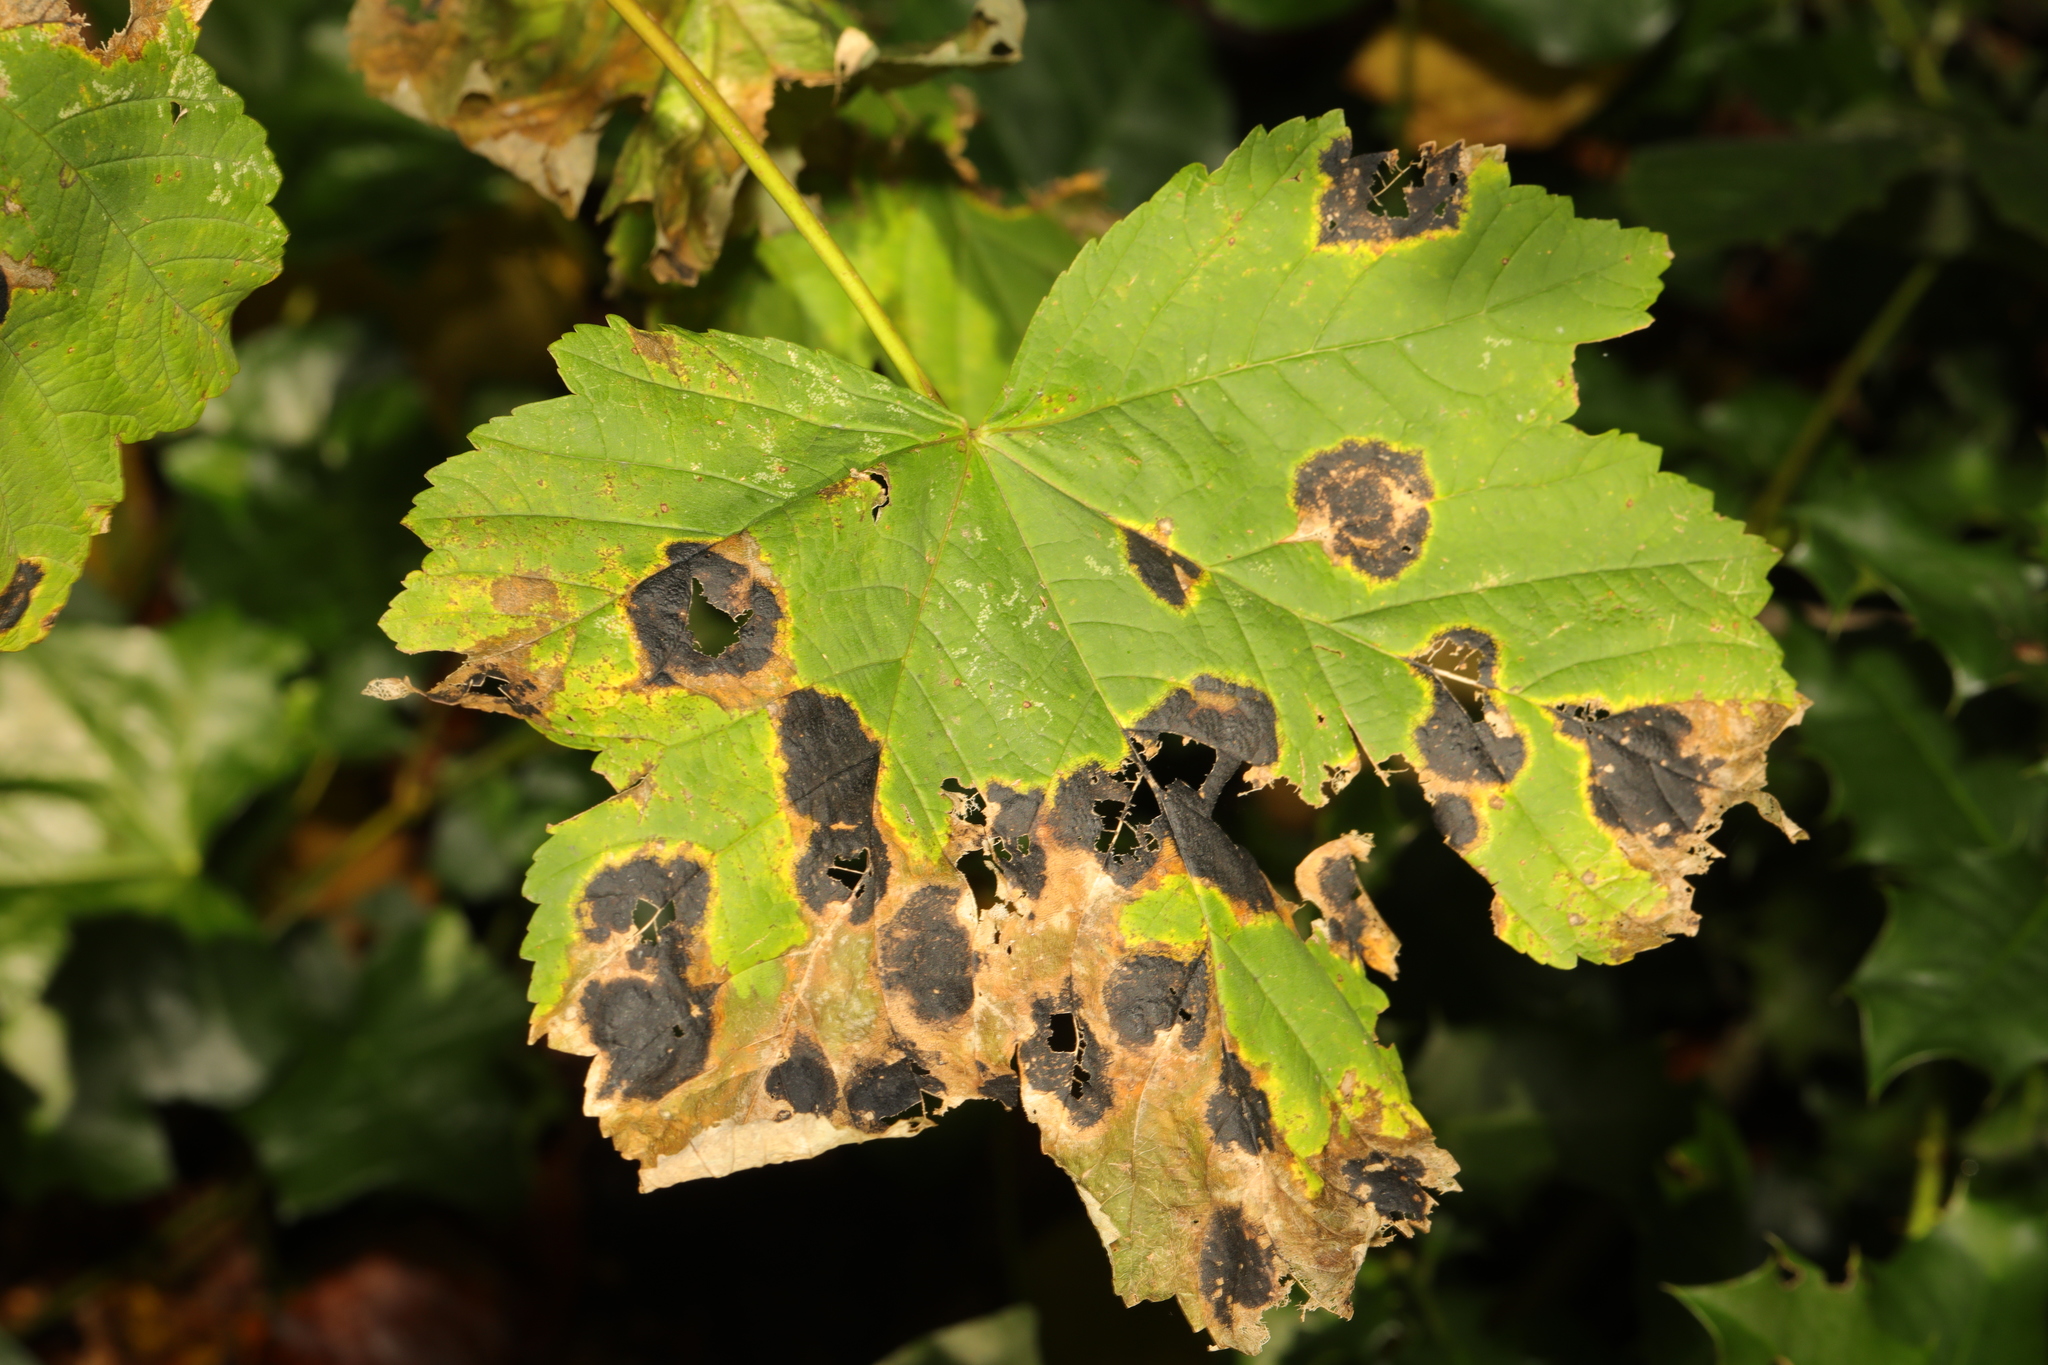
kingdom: Fungi
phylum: Ascomycota
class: Leotiomycetes
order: Rhytismatales
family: Rhytismataceae
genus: Rhytisma
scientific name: Rhytisma acerinum
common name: European tar spot
